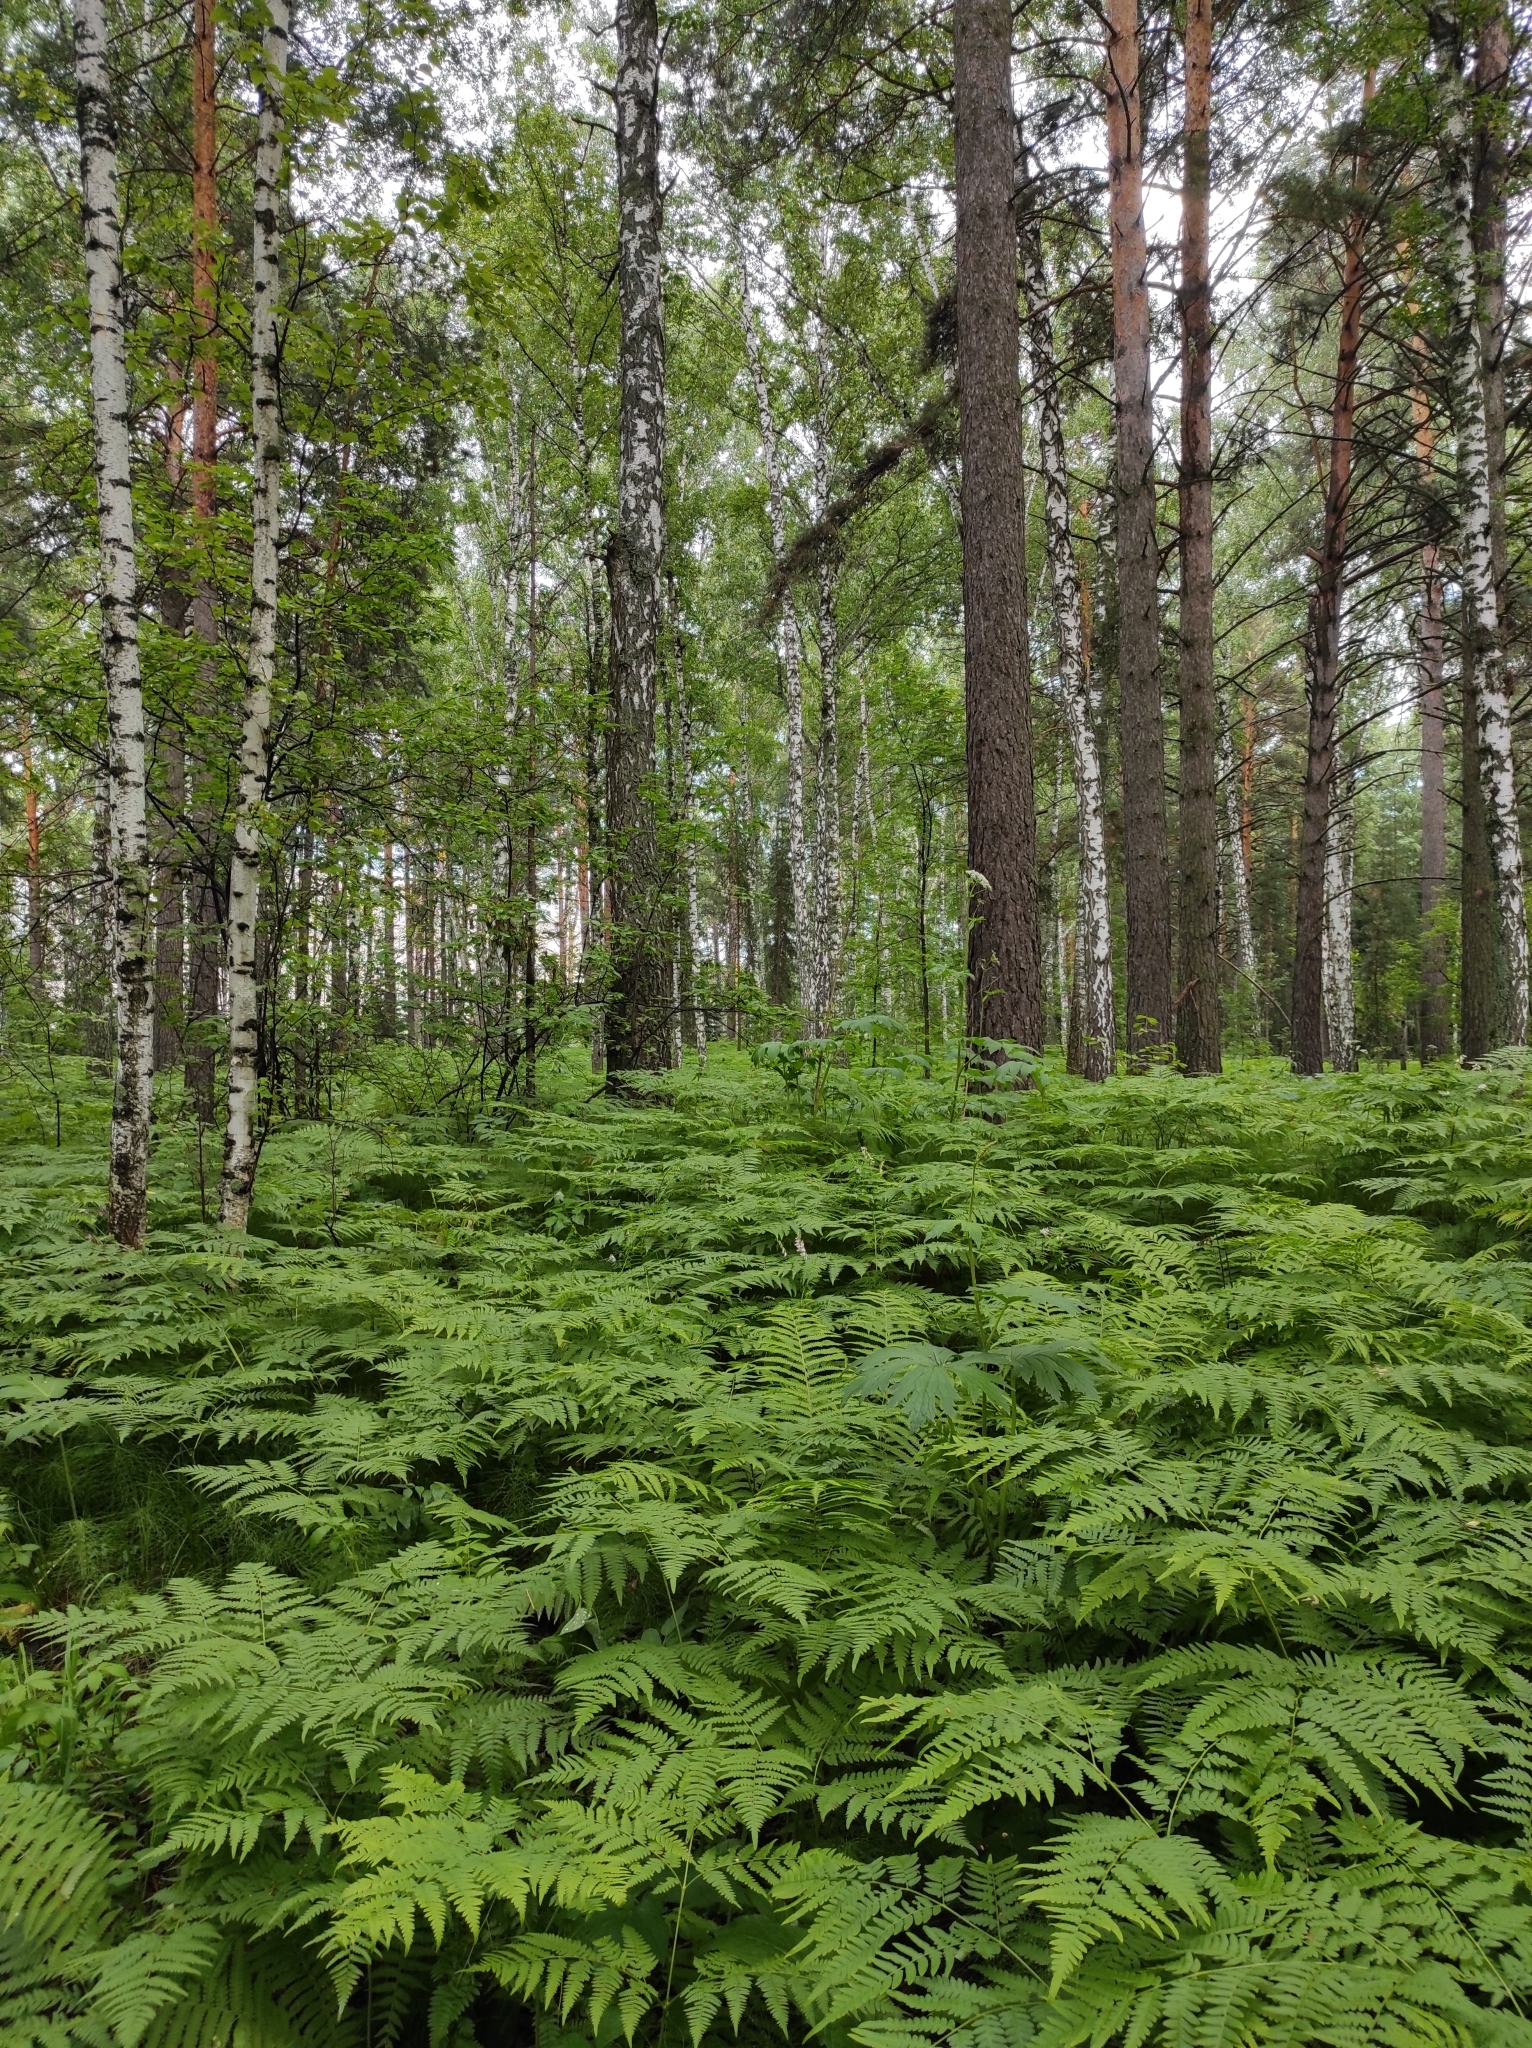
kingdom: Plantae
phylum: Tracheophyta
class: Polypodiopsida
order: Polypodiales
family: Dennstaedtiaceae
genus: Pteridium
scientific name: Pteridium aquilinum
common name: Bracken
